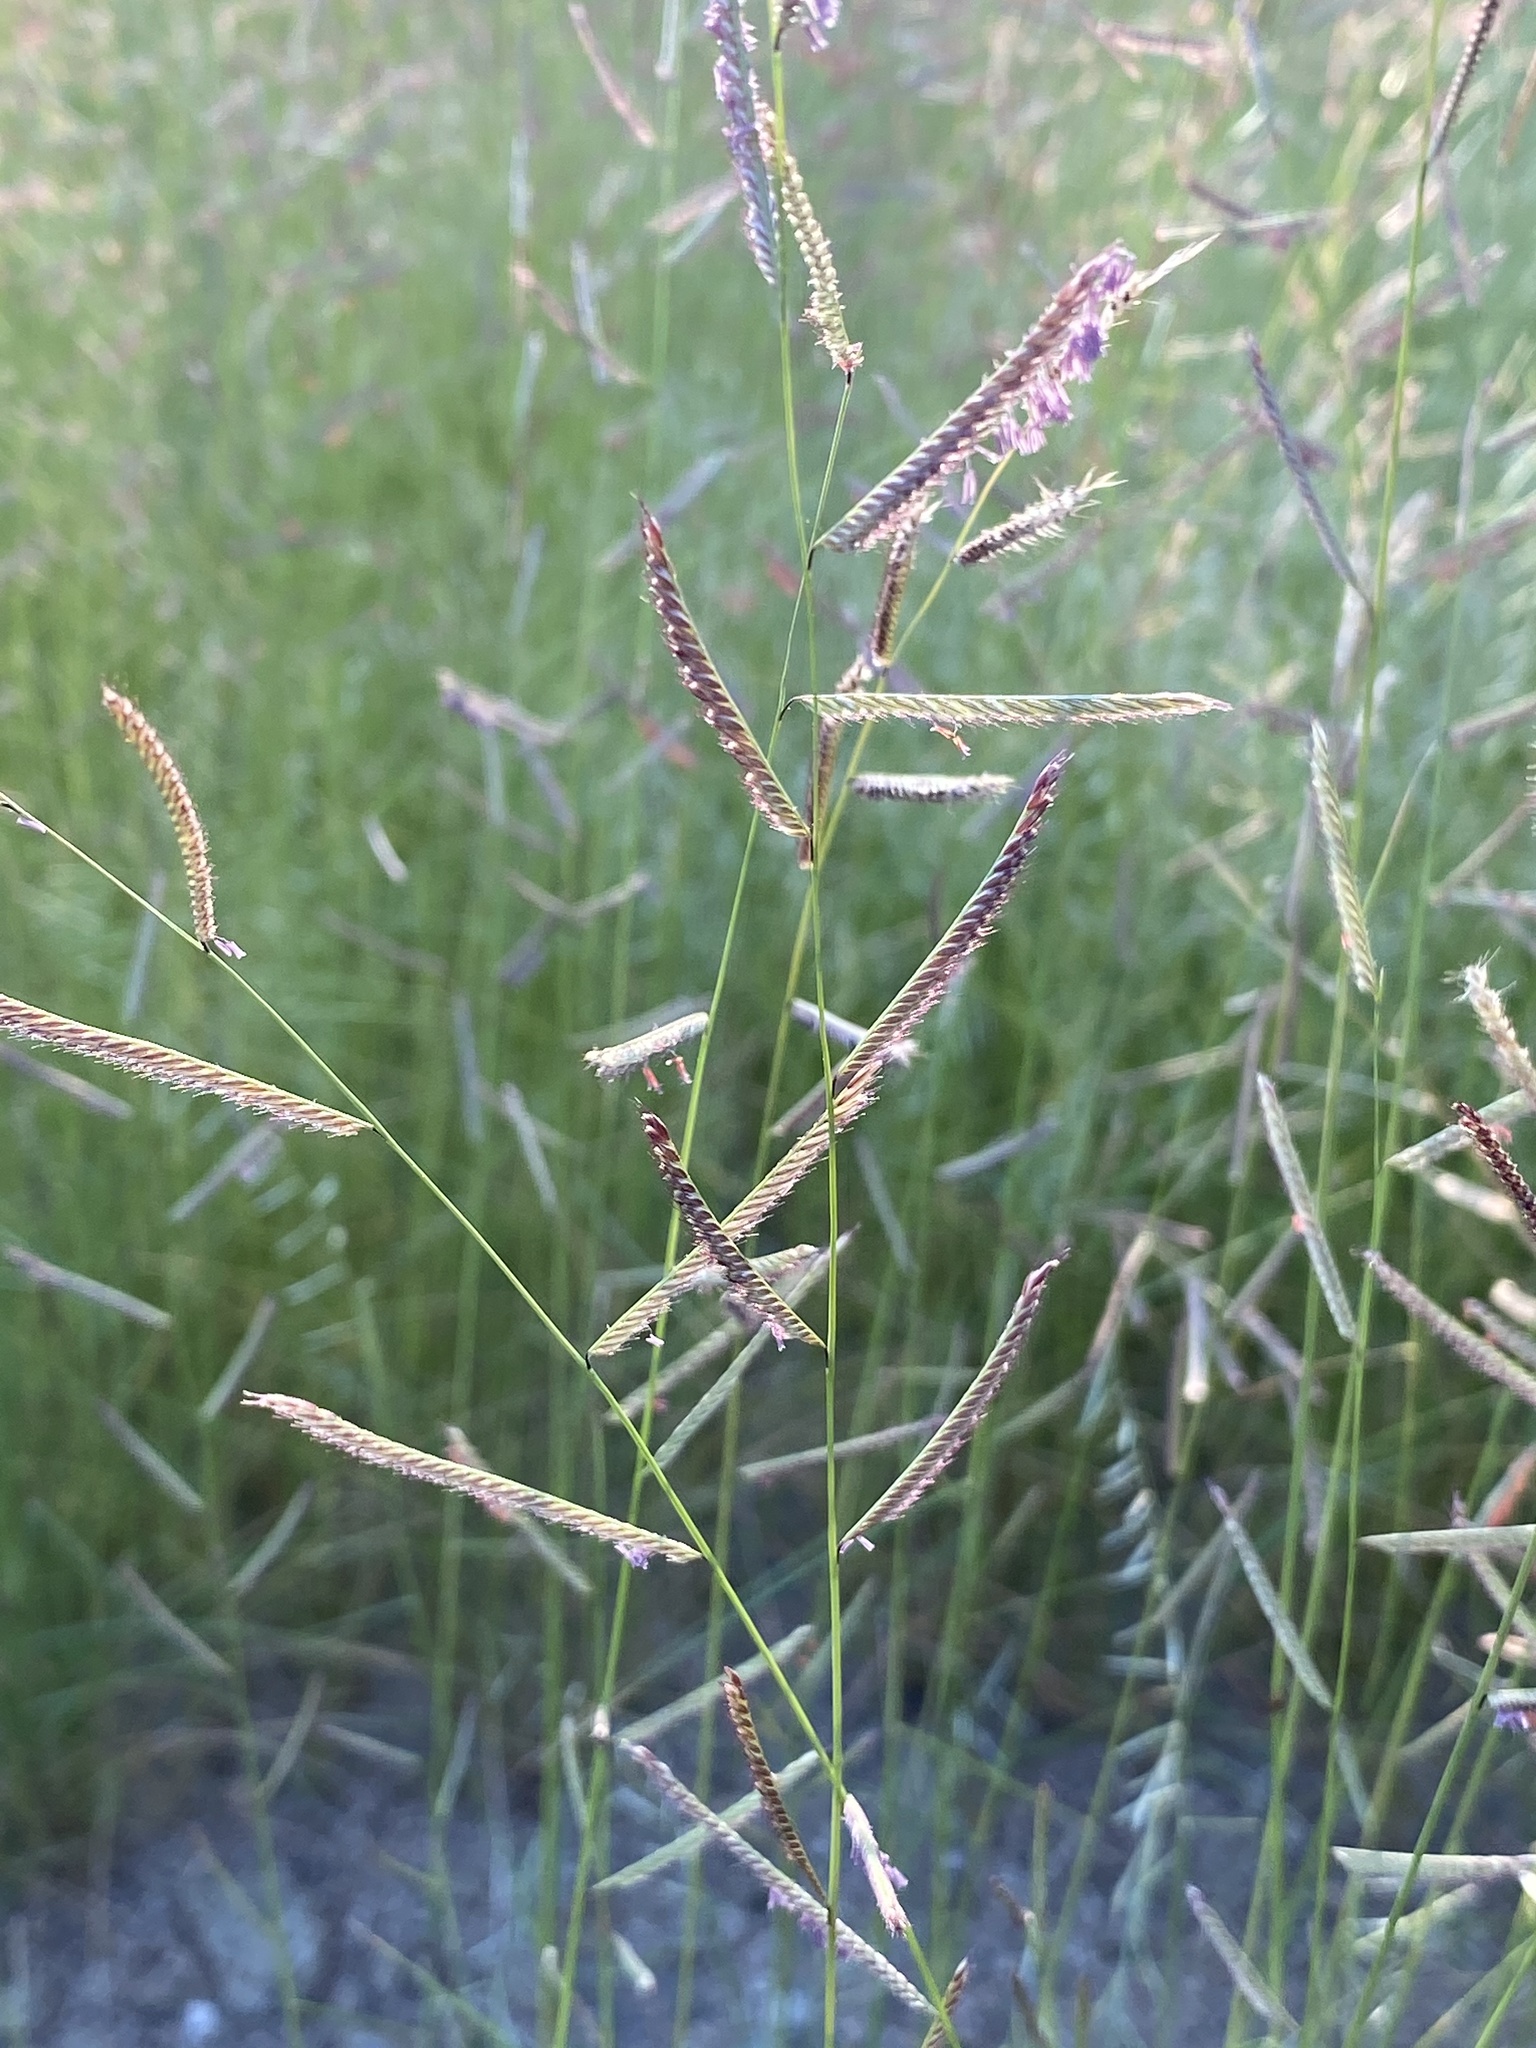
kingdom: Plantae
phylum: Tracheophyta
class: Liliopsida
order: Poales
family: Poaceae
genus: Bouteloua
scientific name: Bouteloua barbata
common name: Six-weeks grama
